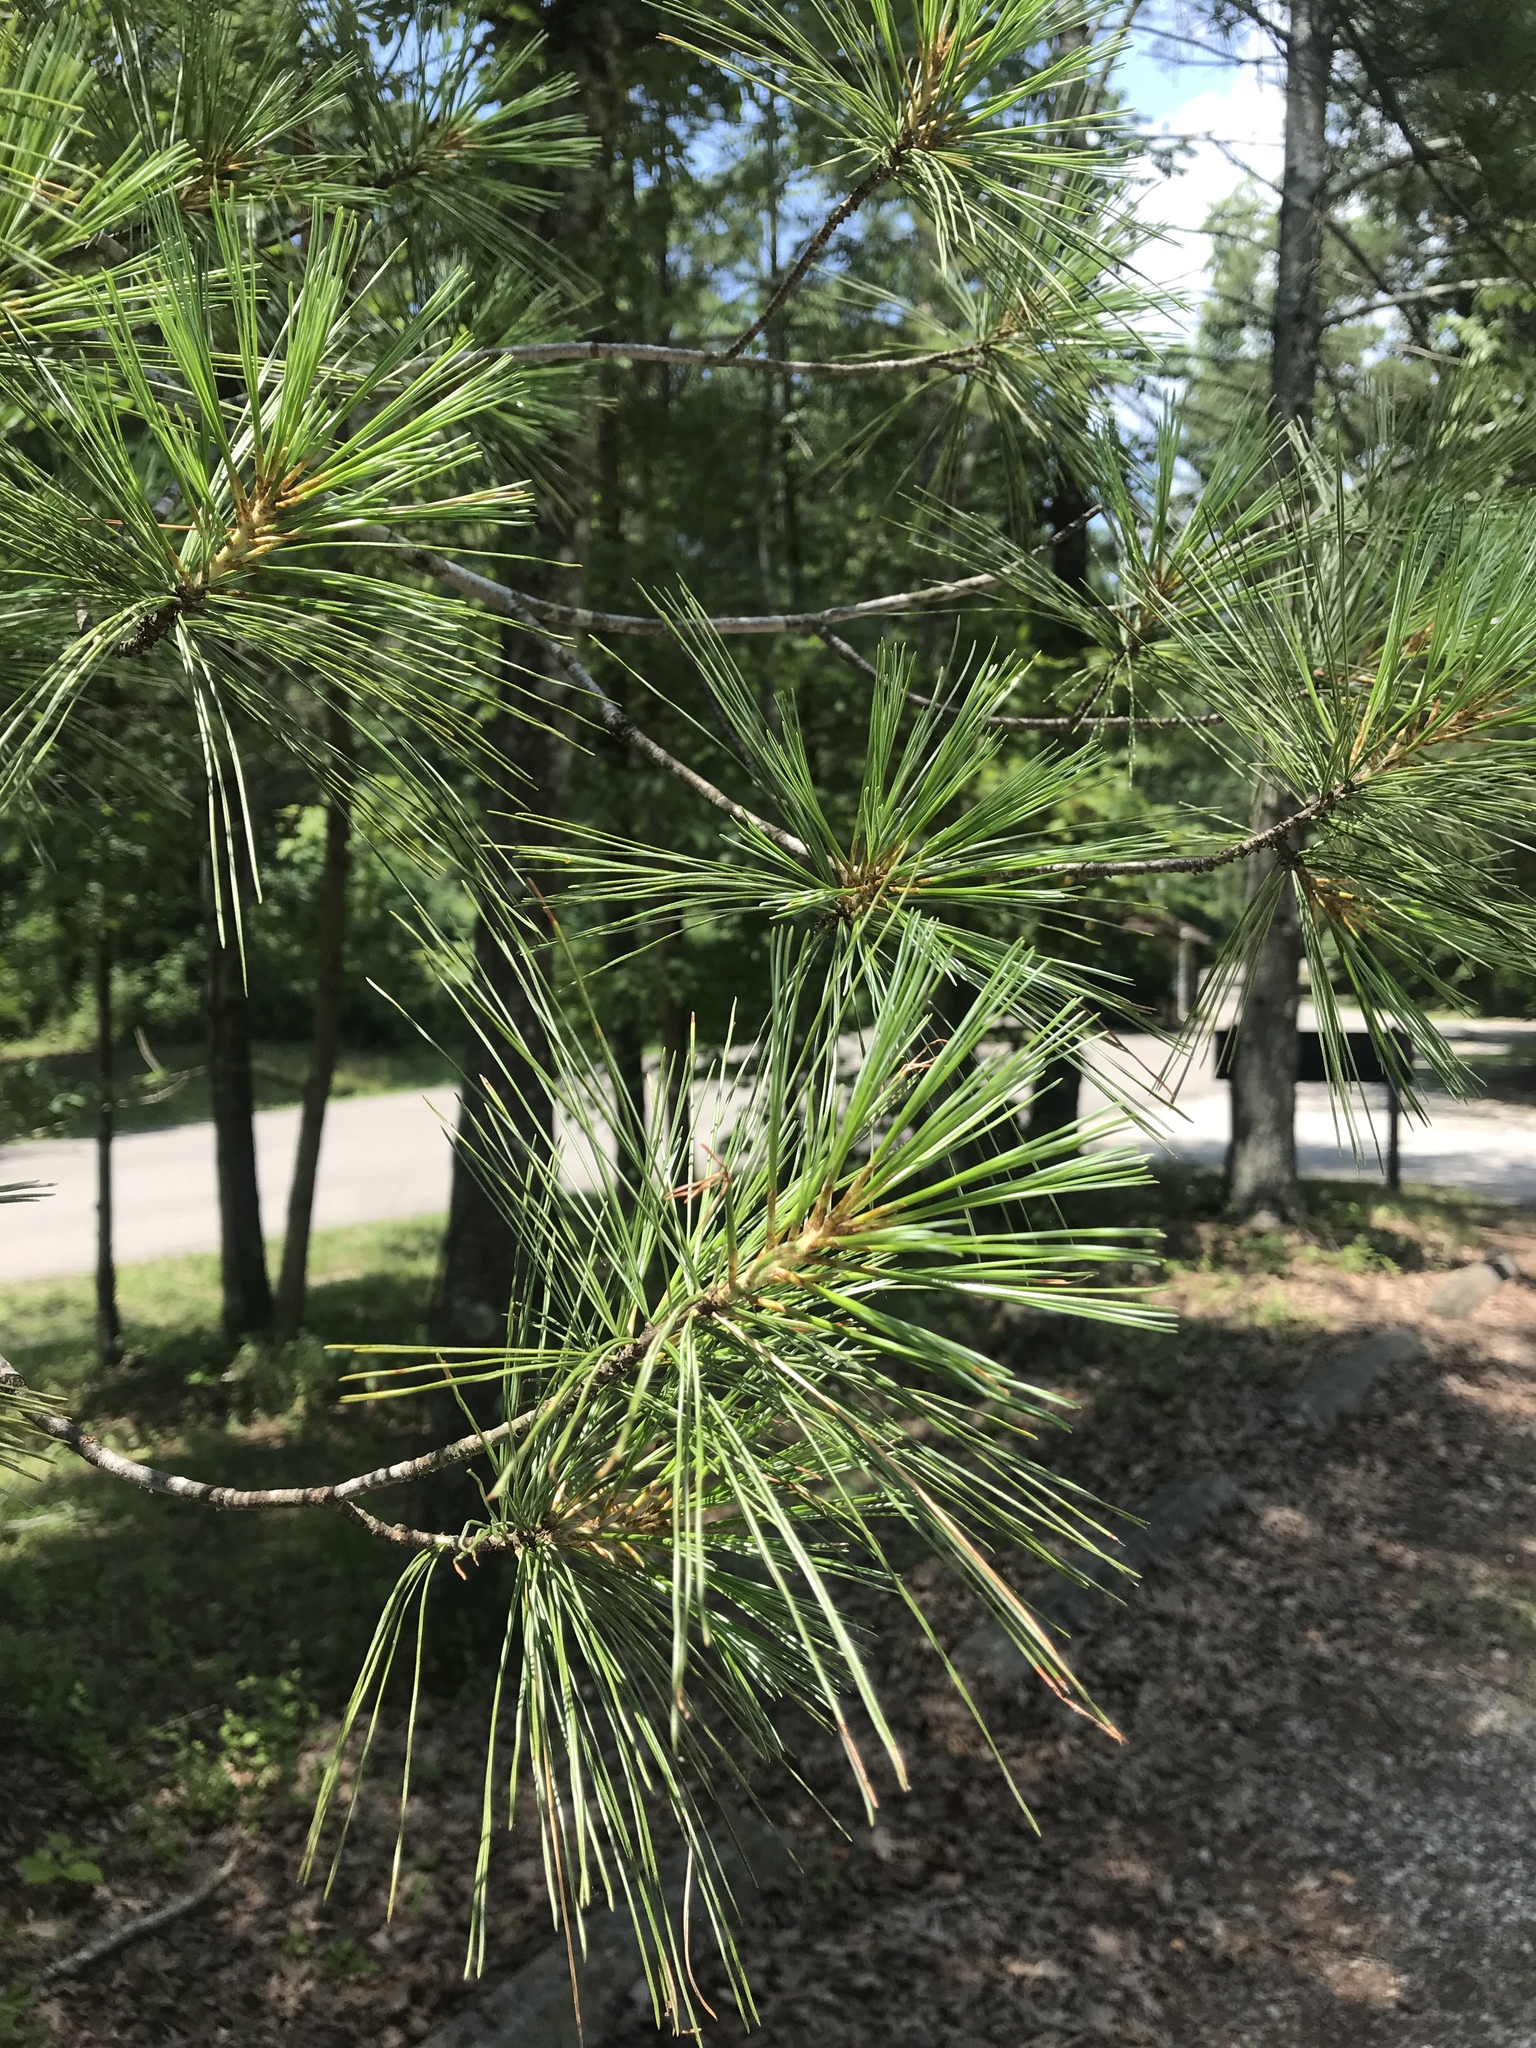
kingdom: Plantae
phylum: Tracheophyta
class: Pinopsida
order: Pinales
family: Pinaceae
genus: Pinus
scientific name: Pinus strobus
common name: Weymouth pine
